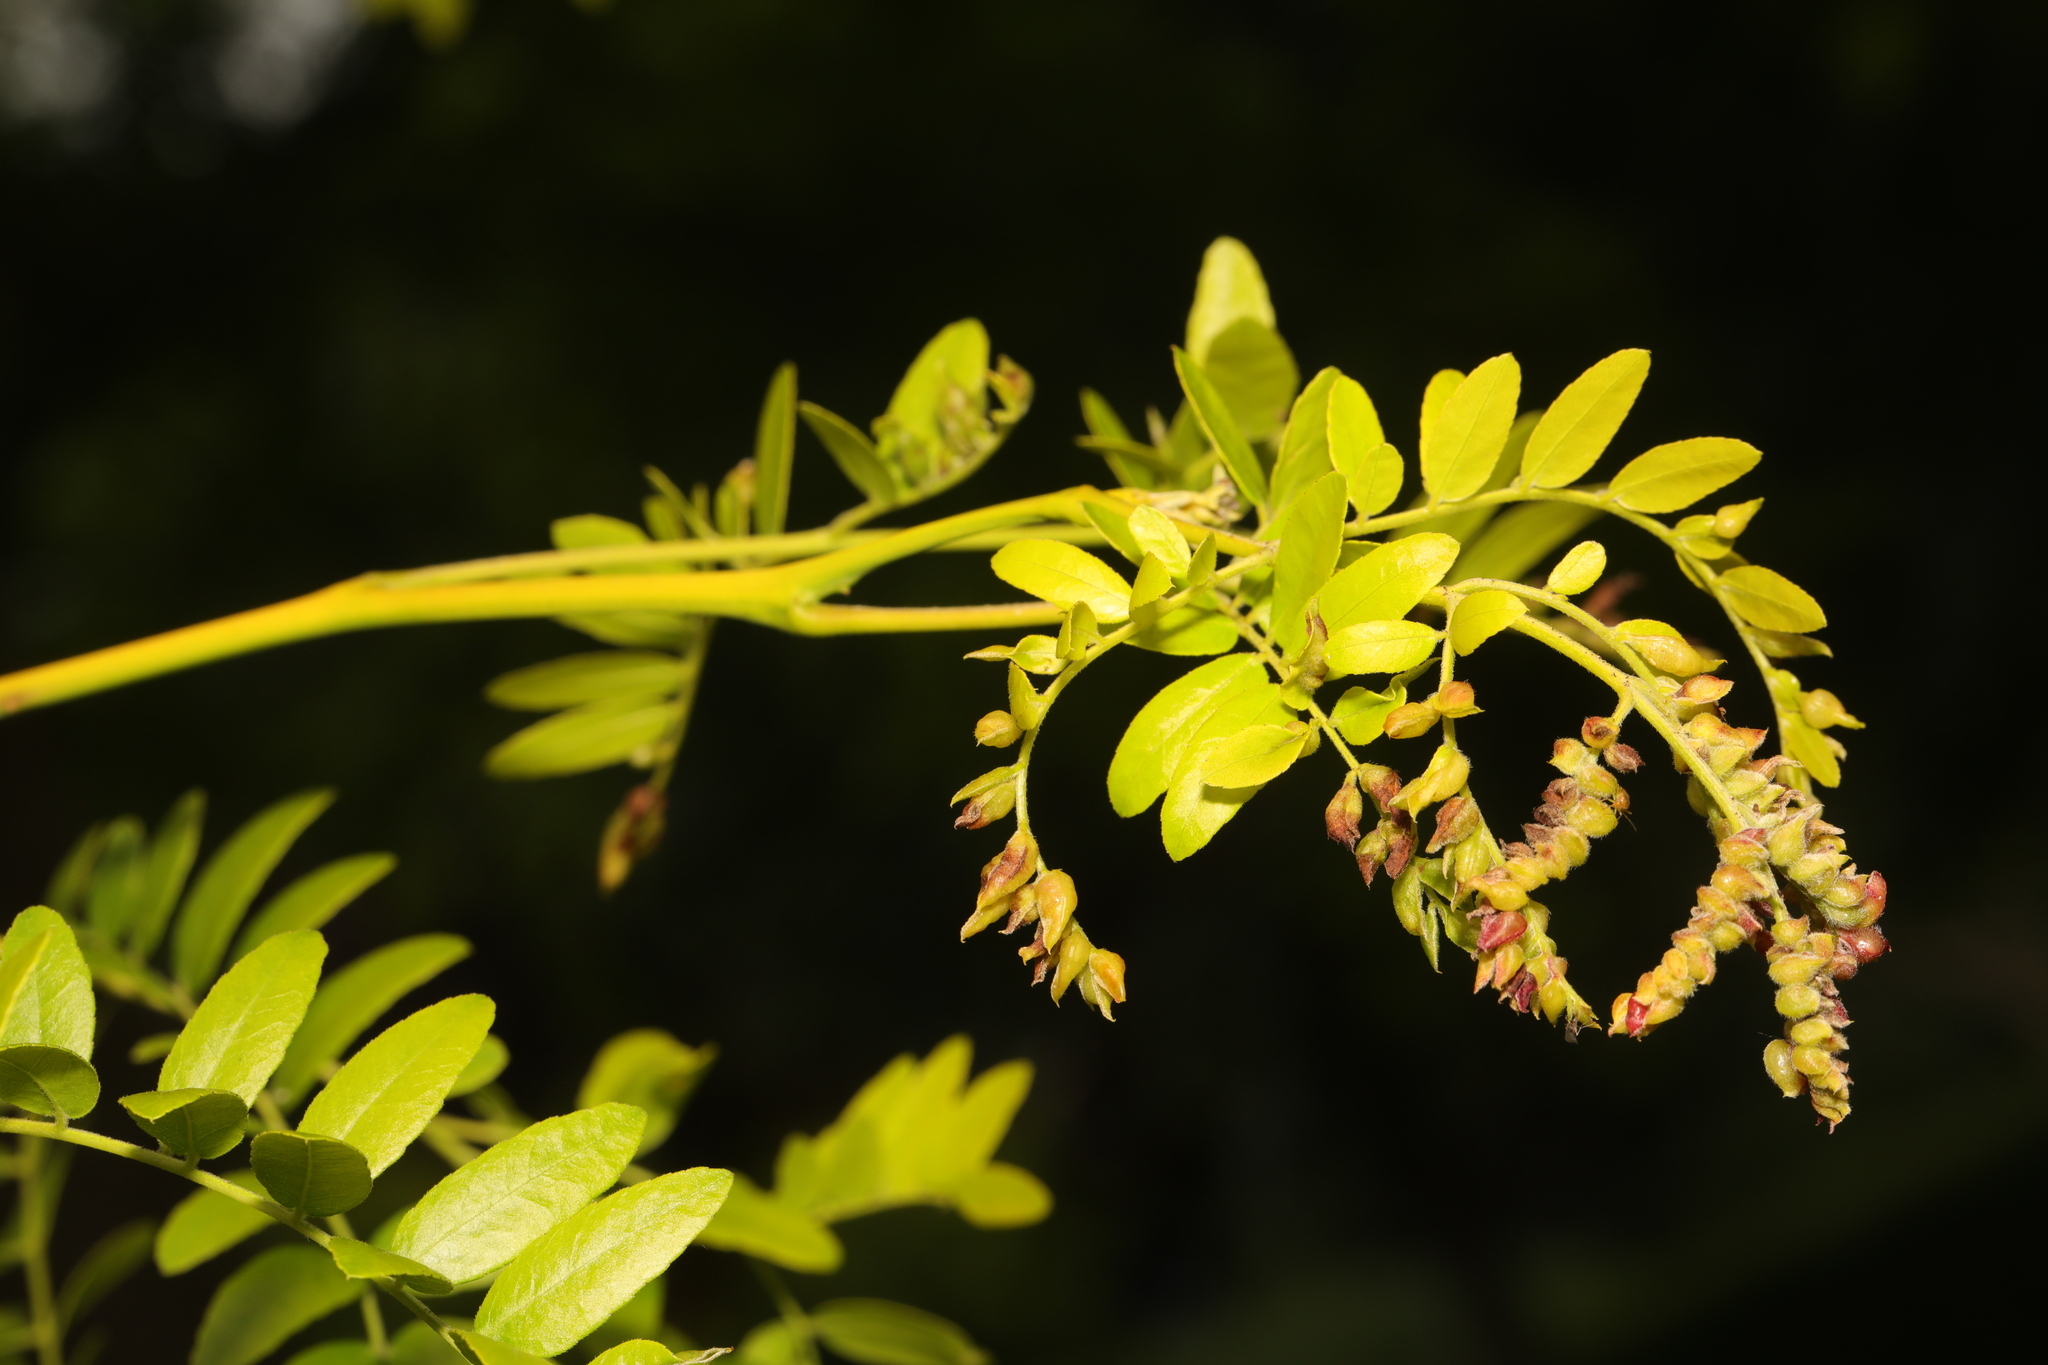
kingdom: Plantae
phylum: Tracheophyta
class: Magnoliopsida
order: Fabales
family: Fabaceae
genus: Gleditsia
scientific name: Gleditsia triacanthos
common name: Common honeylocust
